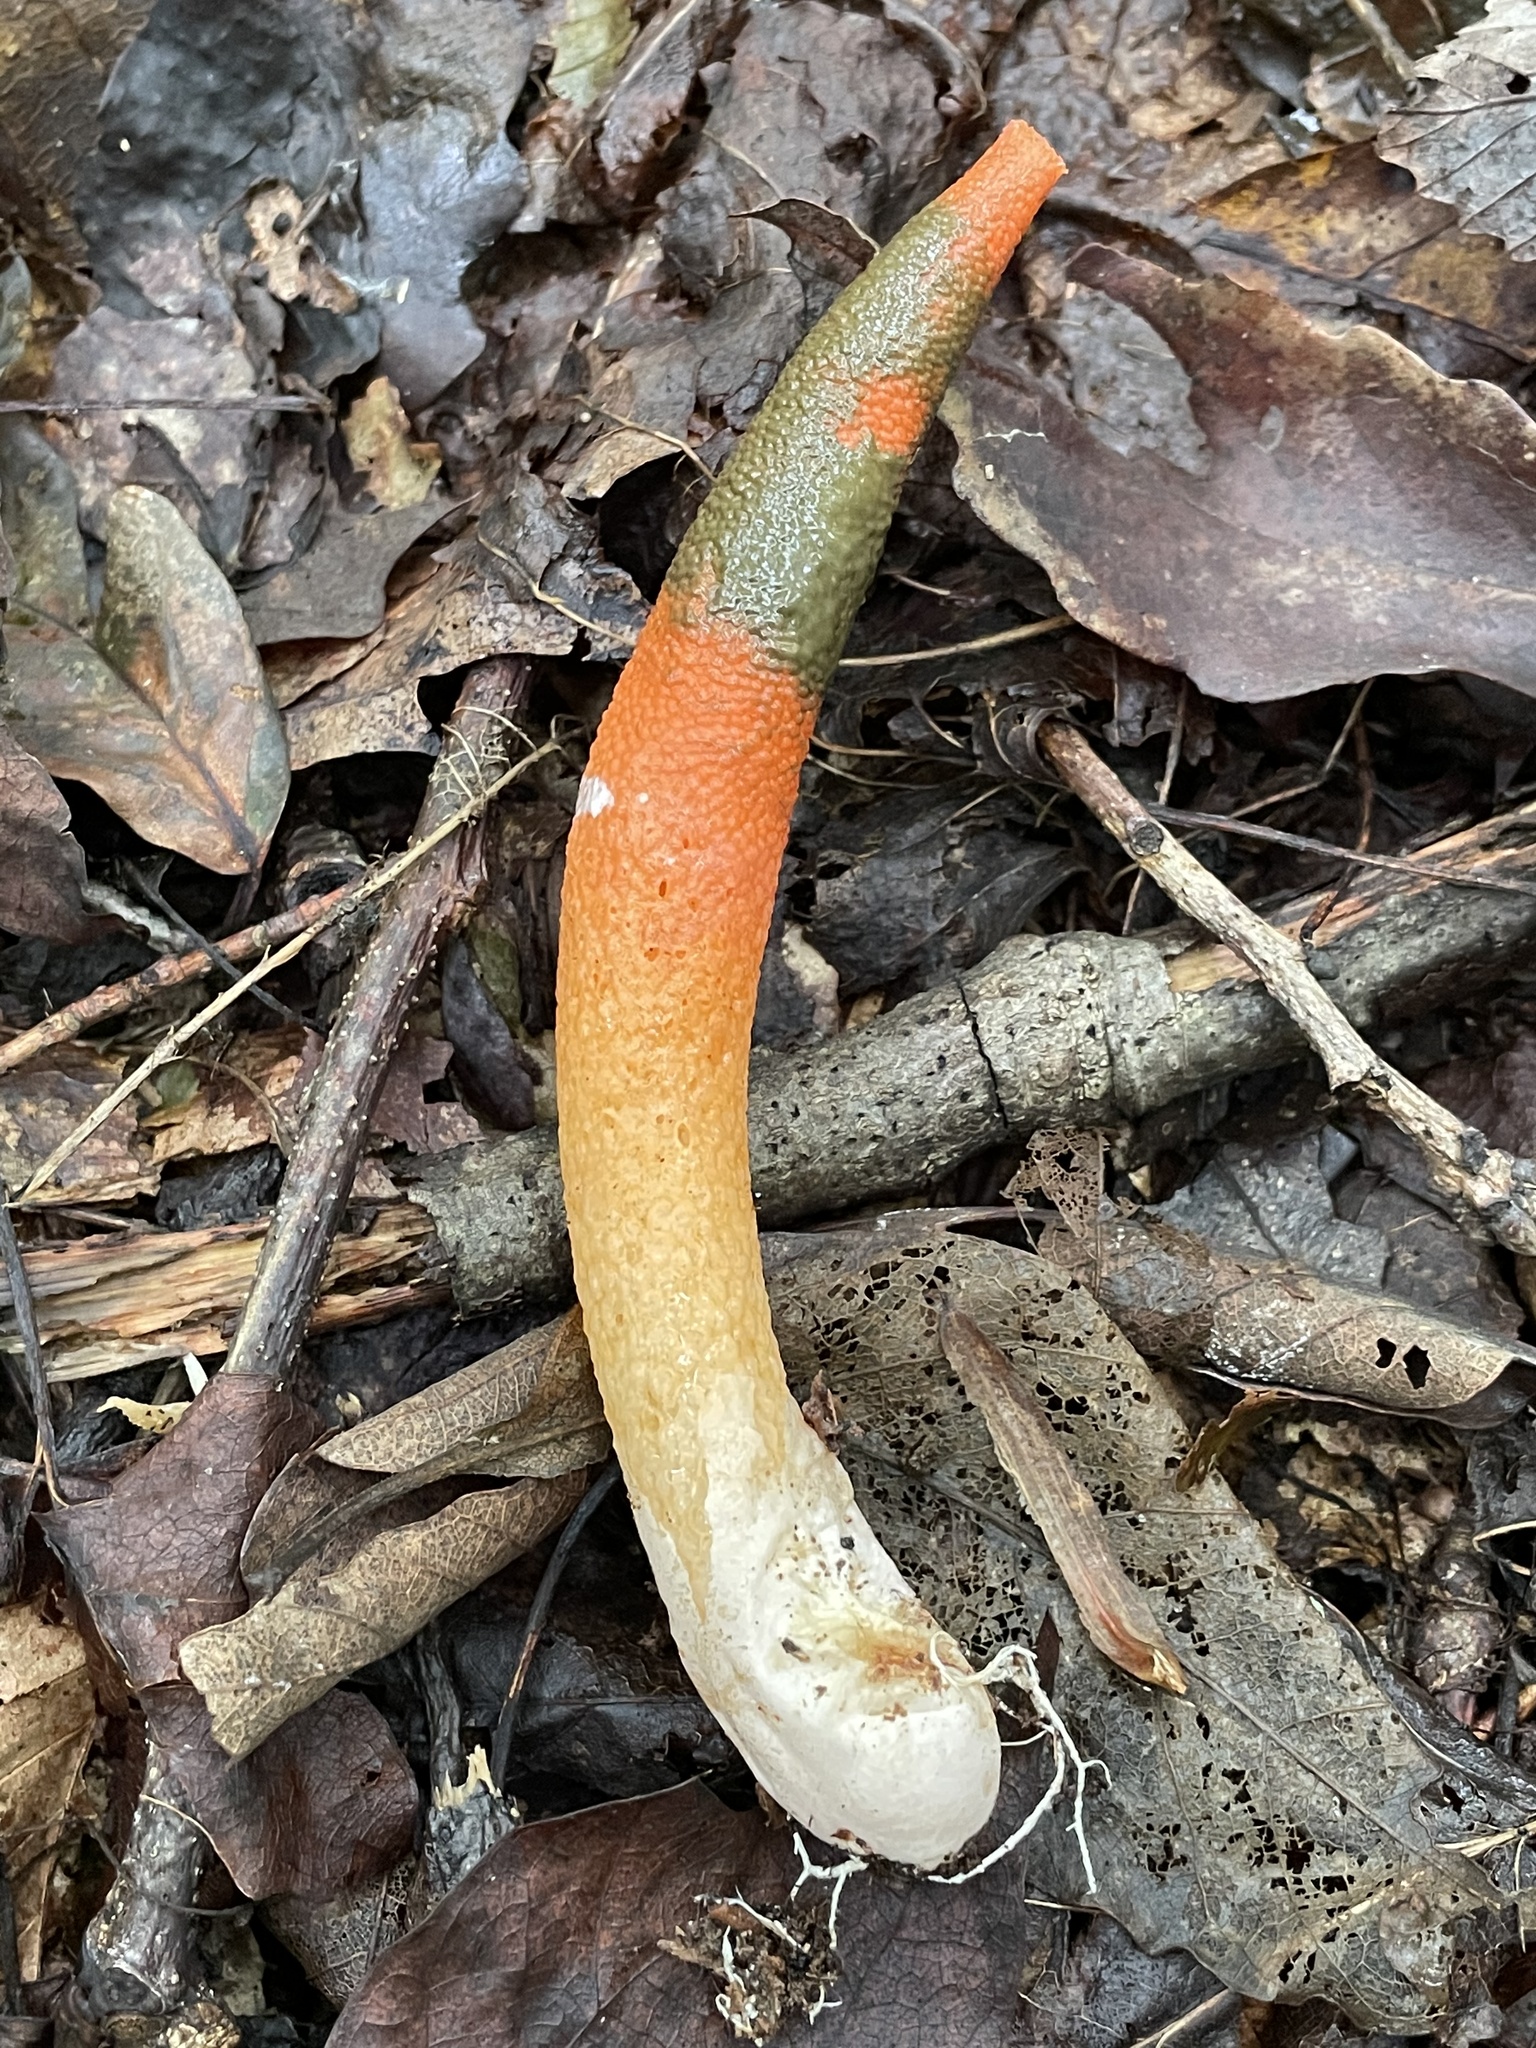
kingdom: Fungi
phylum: Basidiomycota
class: Agaricomycetes
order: Phallales
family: Phallaceae
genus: Mutinus
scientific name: Mutinus elegans
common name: Devil's dipstick
